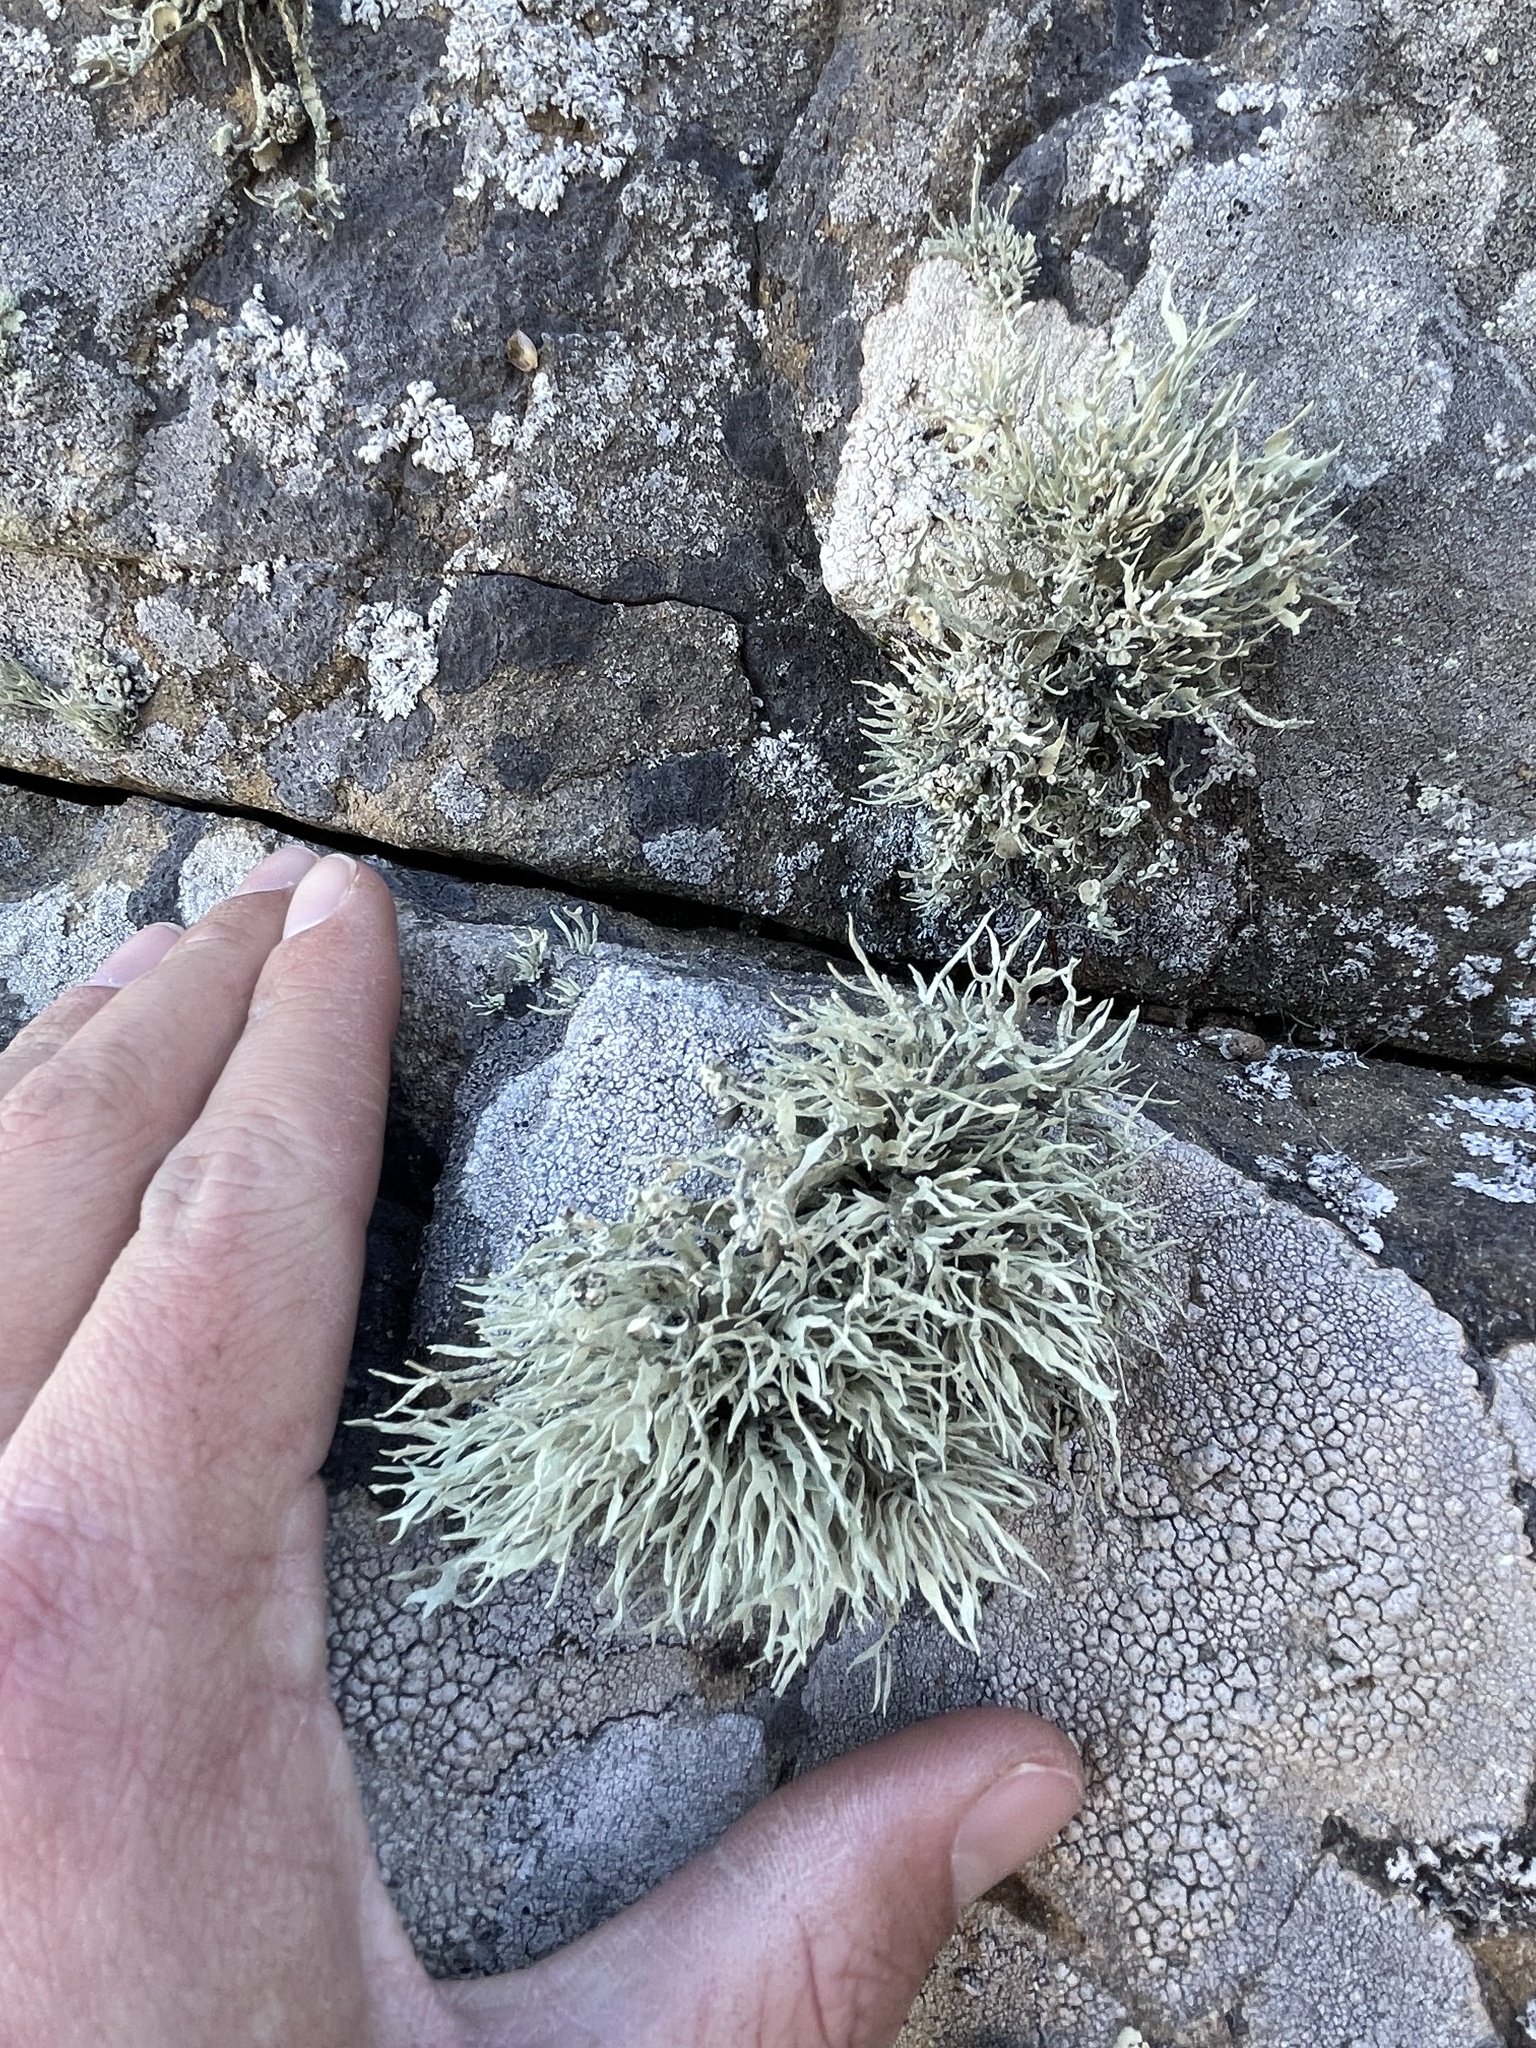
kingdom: Fungi
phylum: Ascomycota
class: Lecanoromycetes
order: Lecanorales
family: Ramalinaceae
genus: Niebla
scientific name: Niebla homalea
